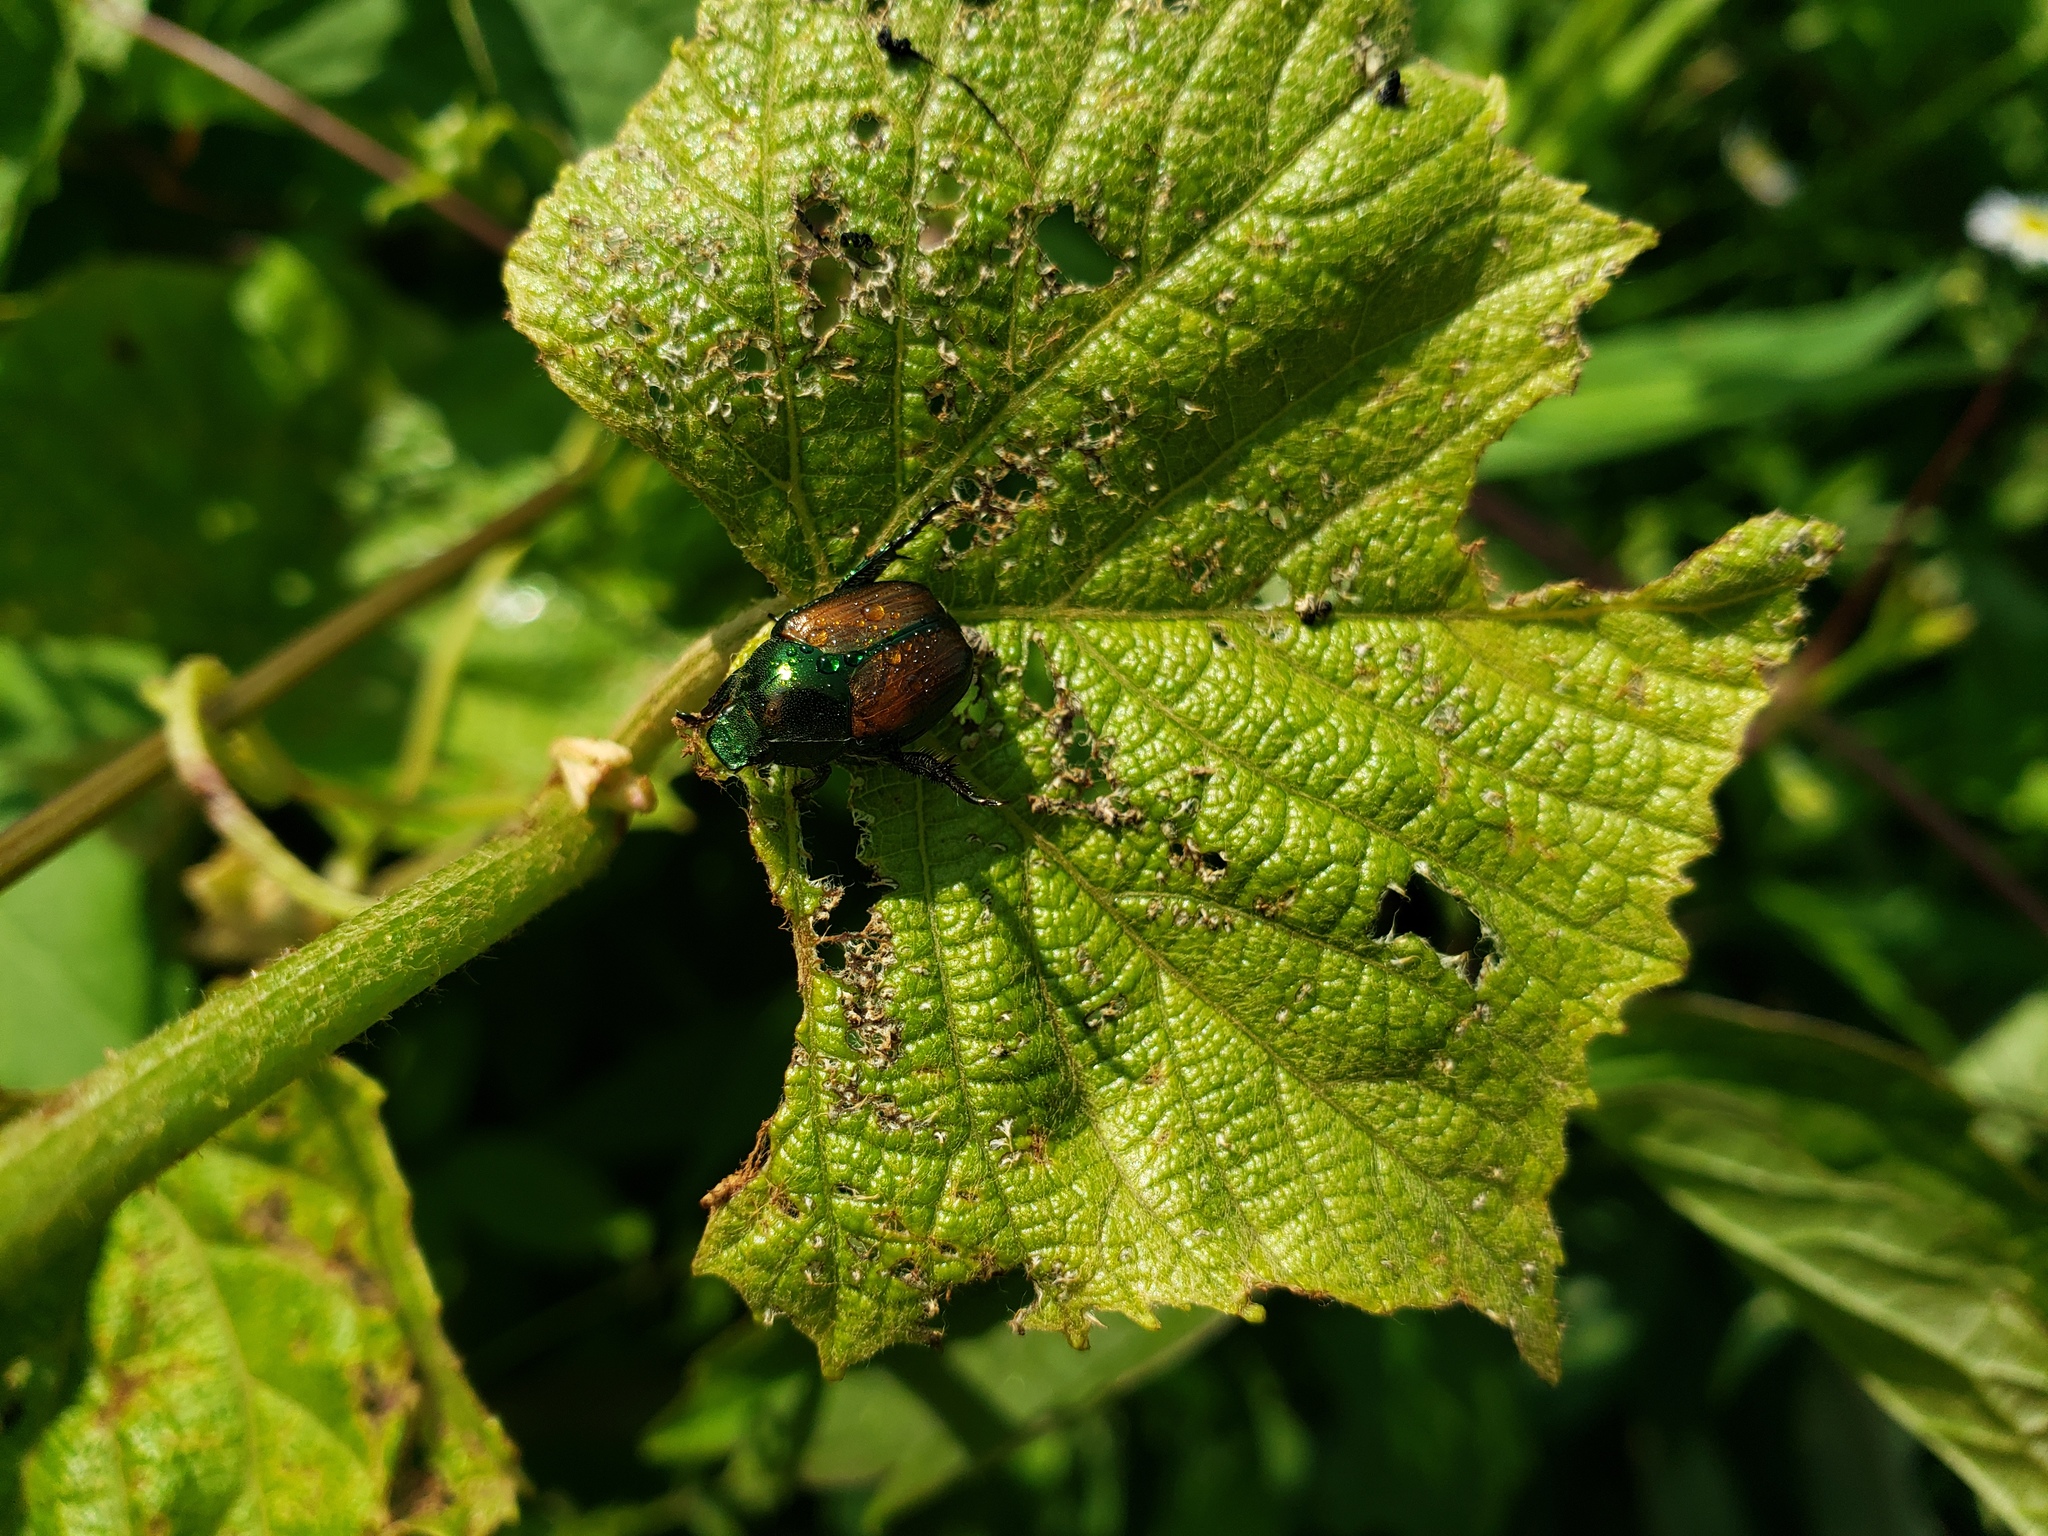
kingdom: Animalia
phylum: Arthropoda
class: Insecta
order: Coleoptera
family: Scarabaeidae
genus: Popillia
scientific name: Popillia japonica
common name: Japanese beetle
